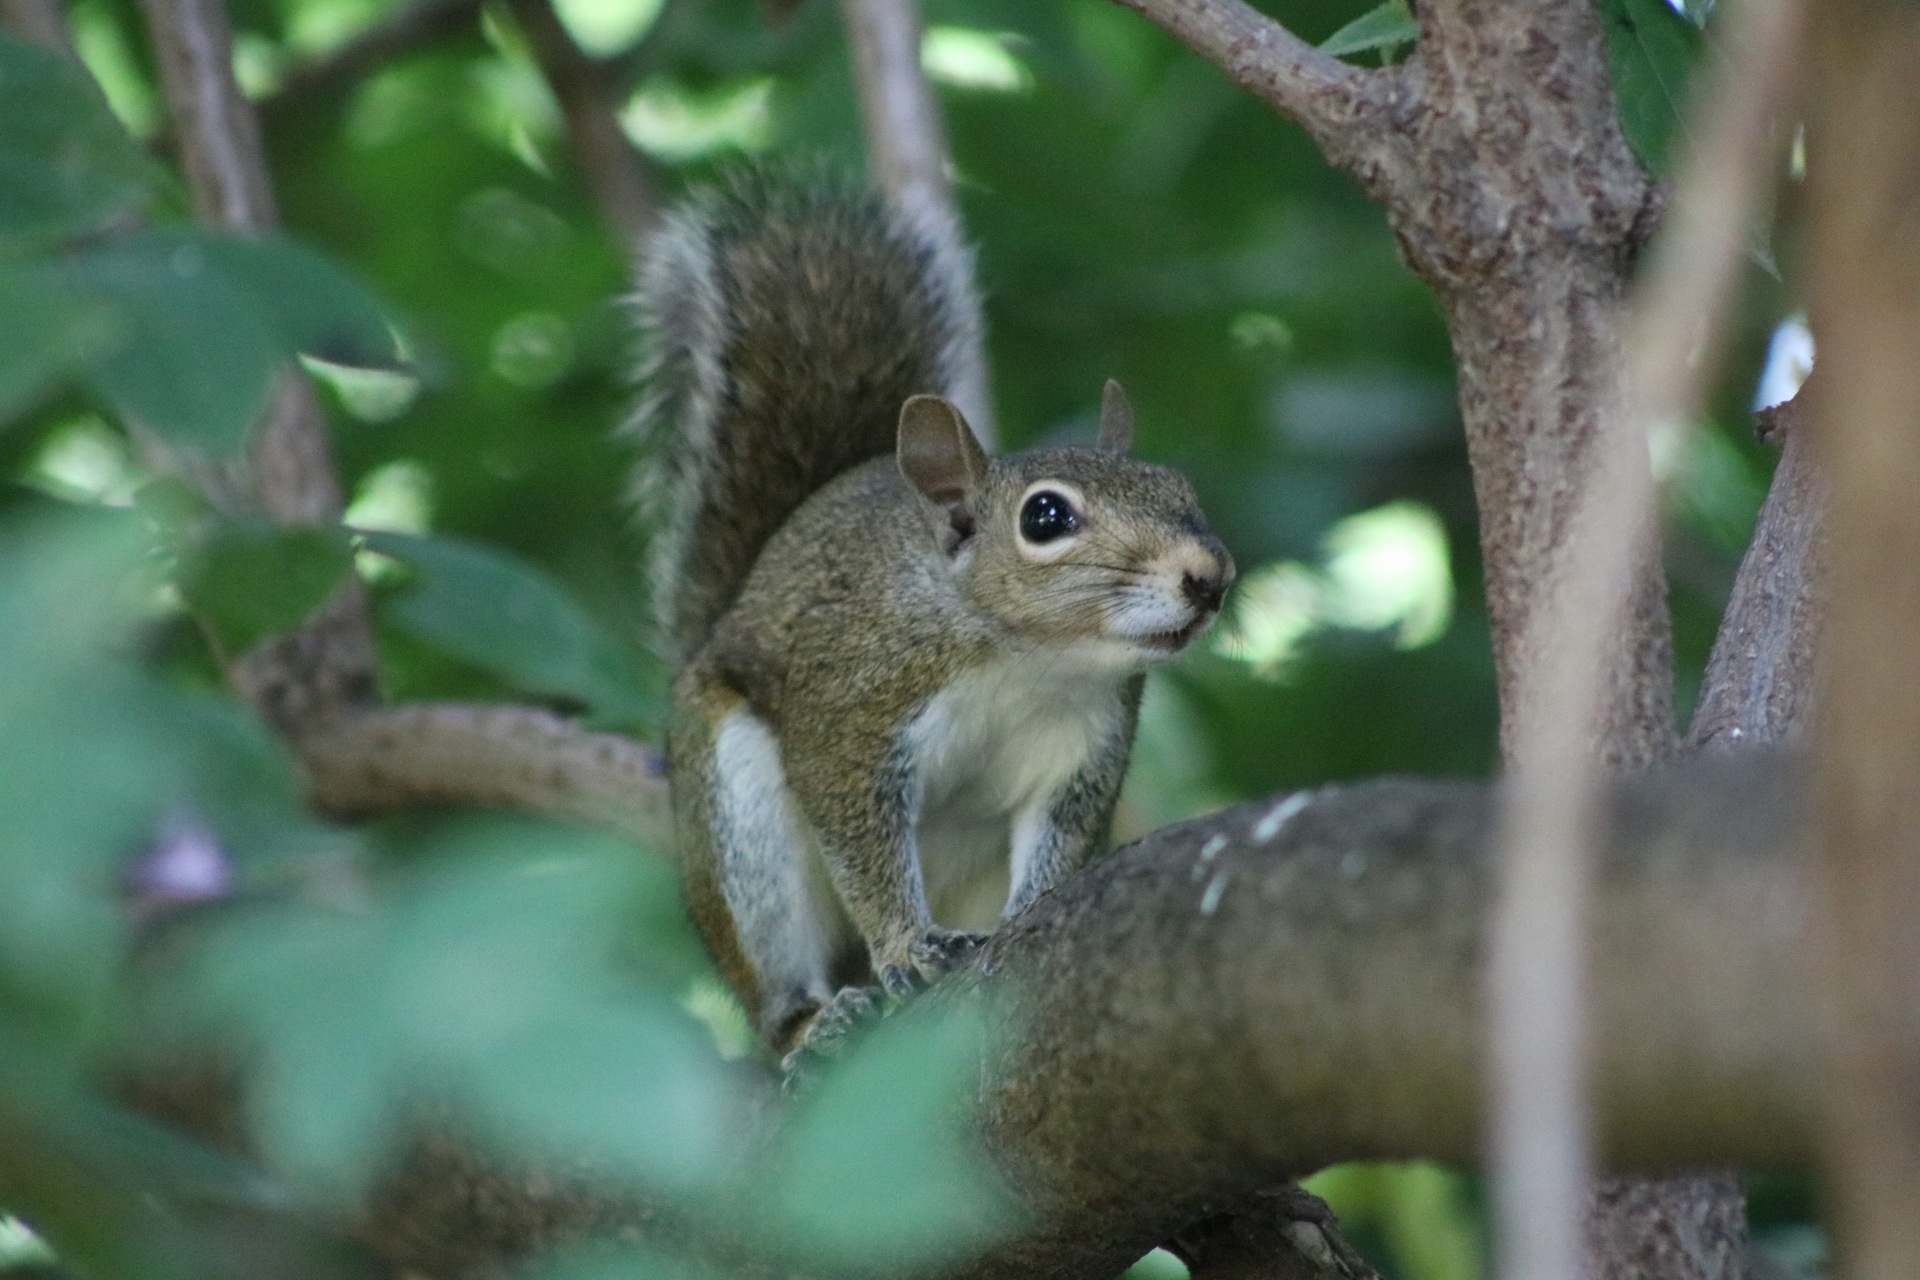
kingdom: Animalia
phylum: Chordata
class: Mammalia
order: Rodentia
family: Sciuridae
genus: Sciurus
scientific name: Sciurus carolinensis
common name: Eastern gray squirrel
